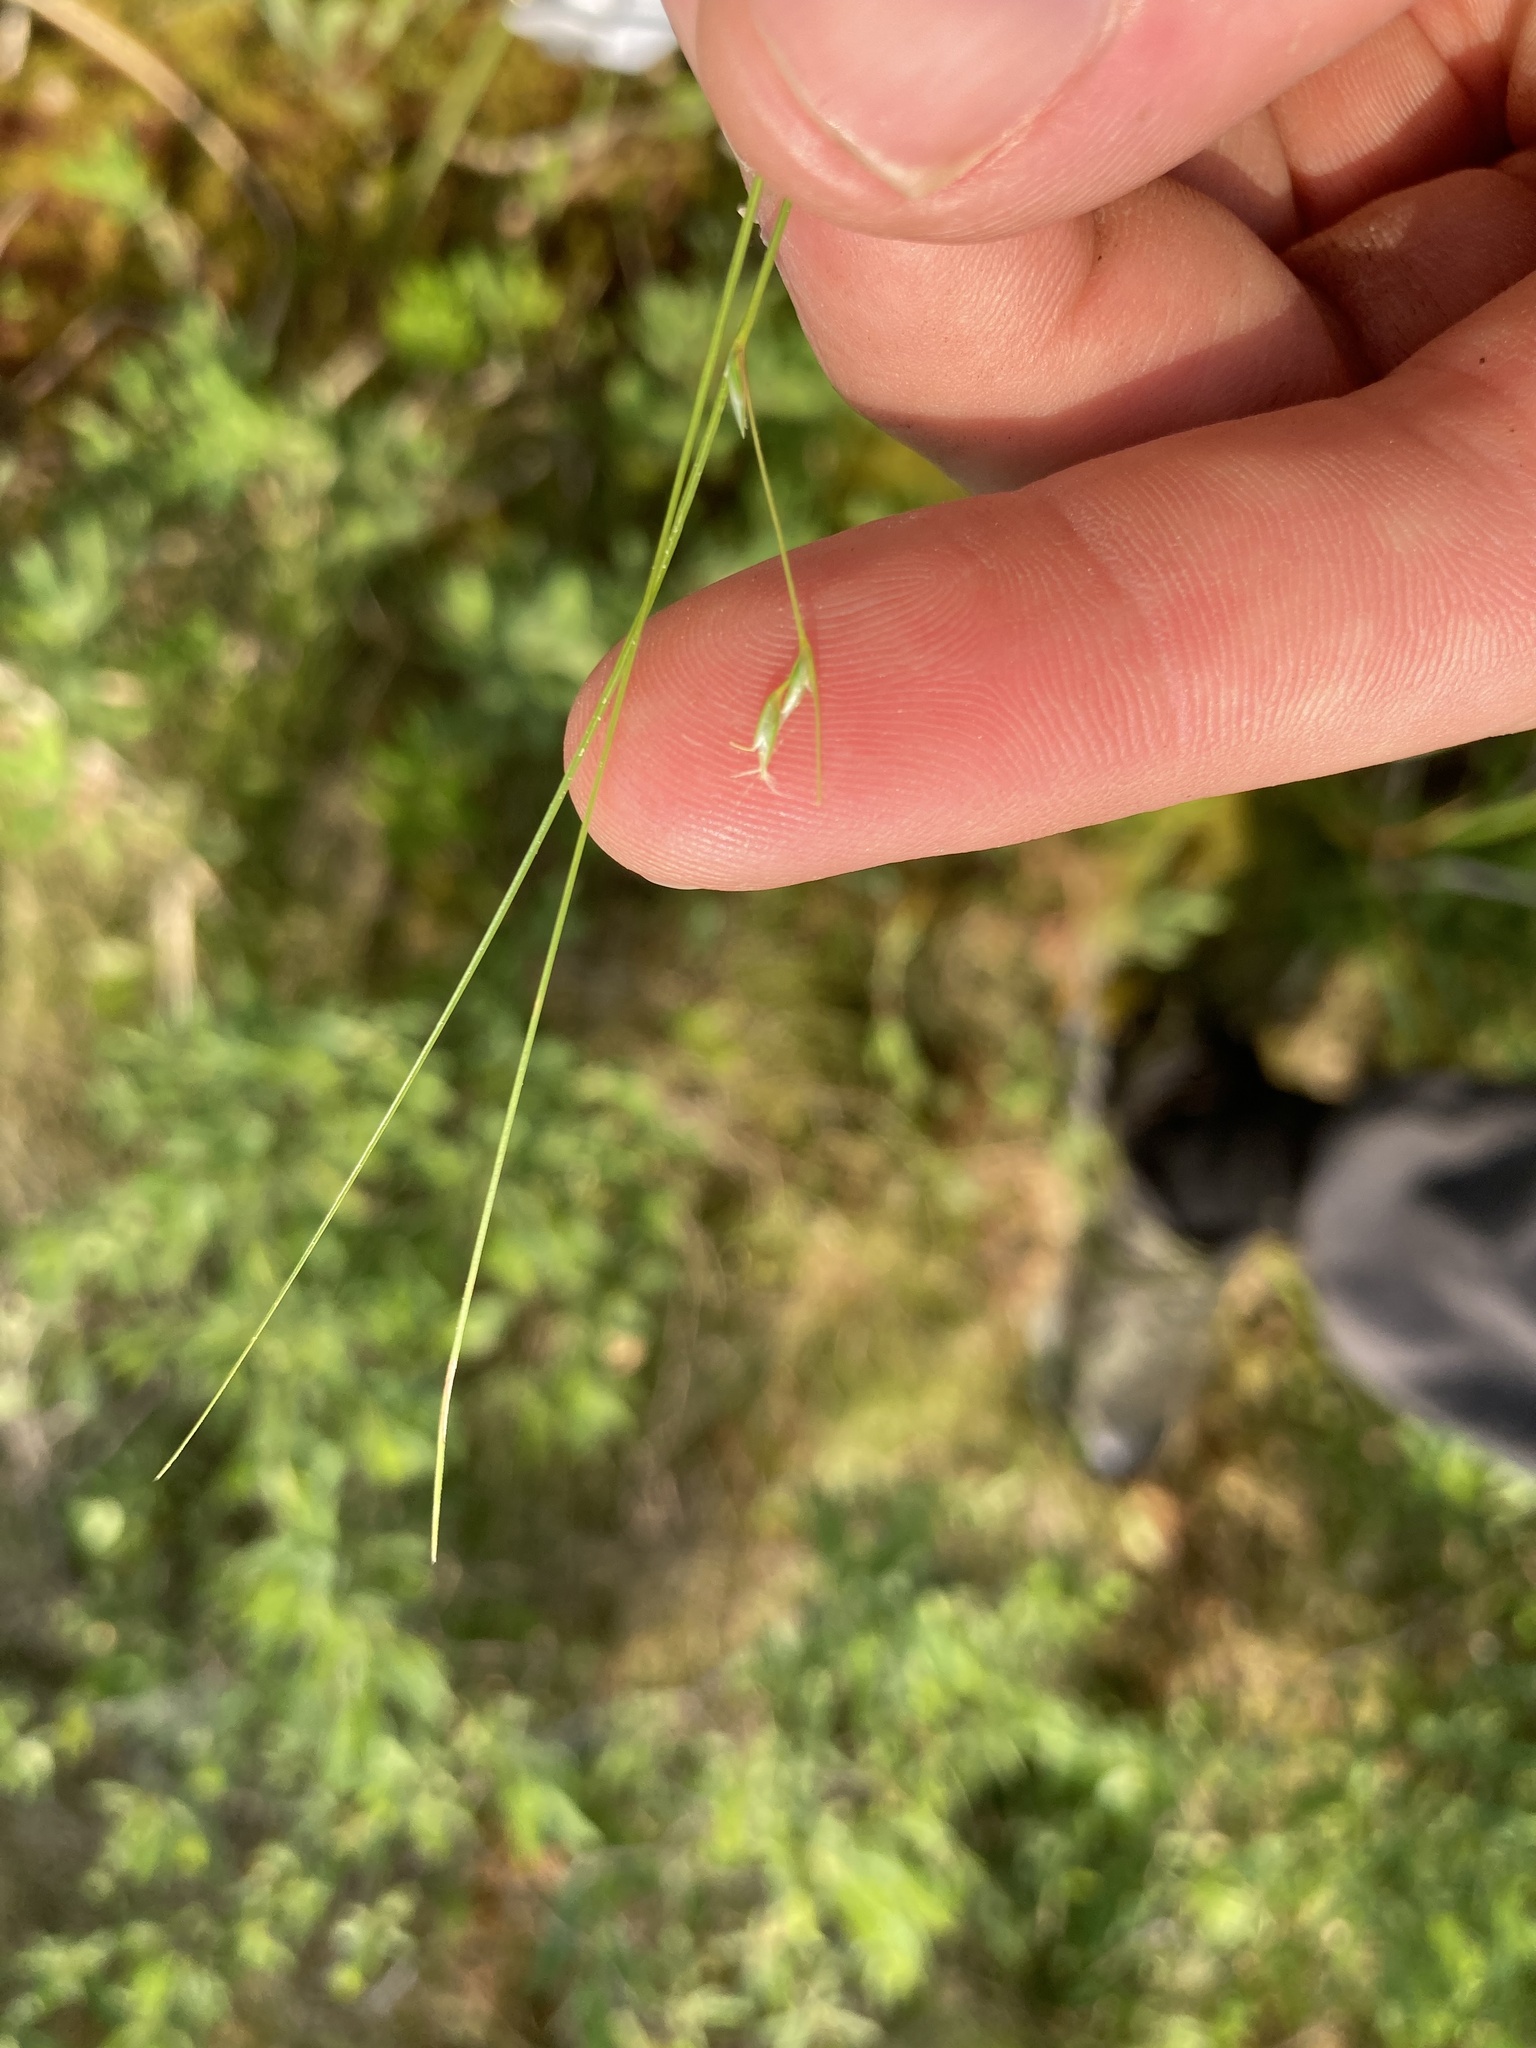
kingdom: Plantae
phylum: Tracheophyta
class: Liliopsida
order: Poales
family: Cyperaceae
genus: Carex
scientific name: Carex trisperma
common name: Three-seeded sedge
